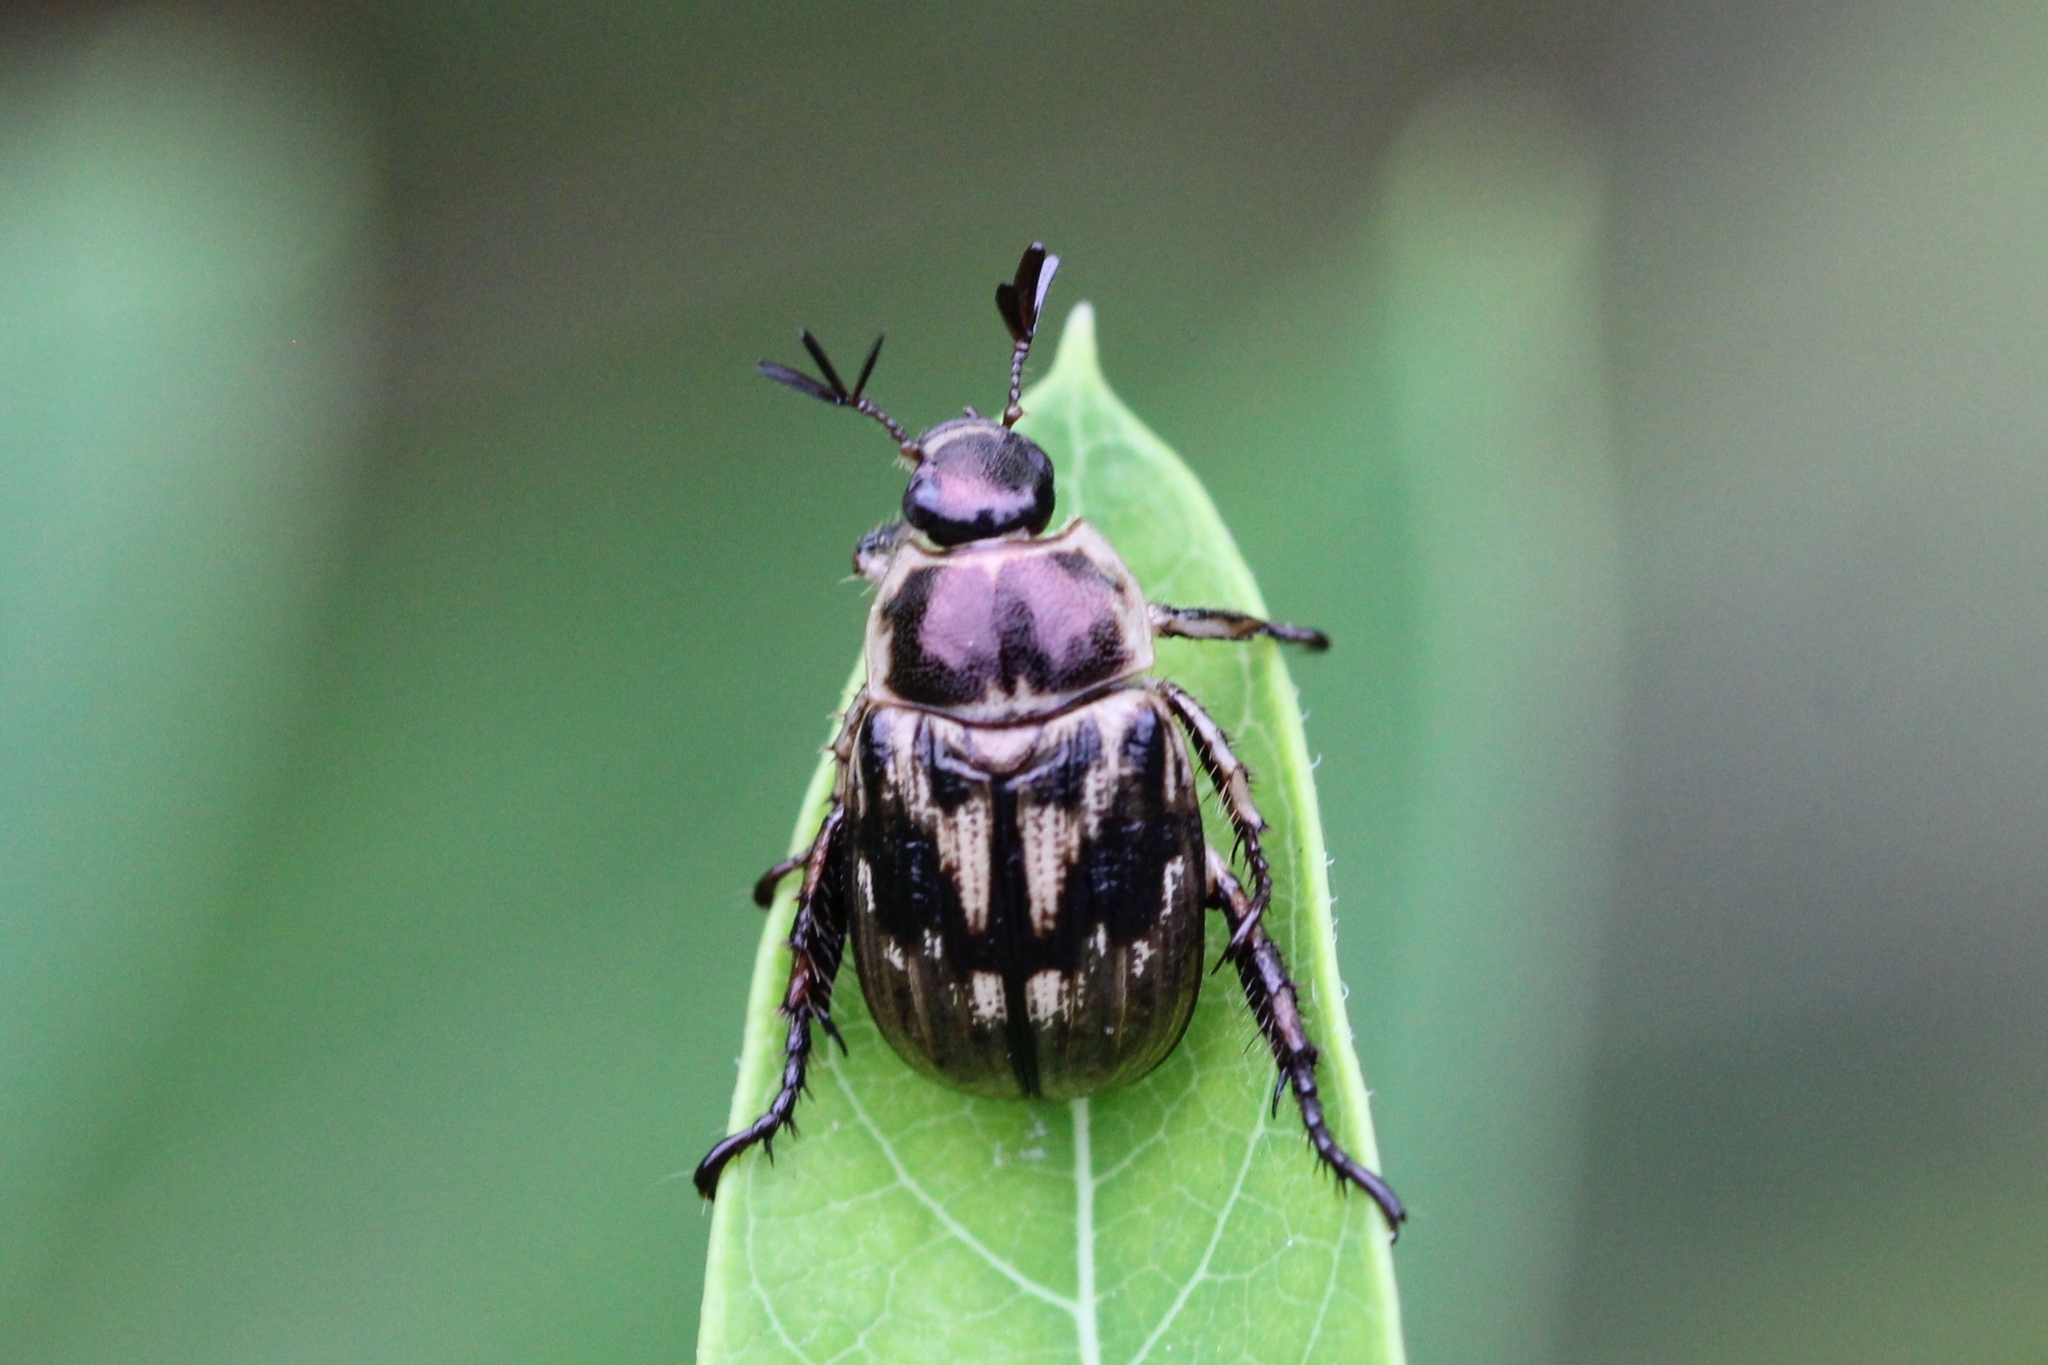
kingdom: Animalia
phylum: Arthropoda
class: Insecta
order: Coleoptera
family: Scarabaeidae
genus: Exomala
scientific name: Exomala orientalis
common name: Oriental beetle
